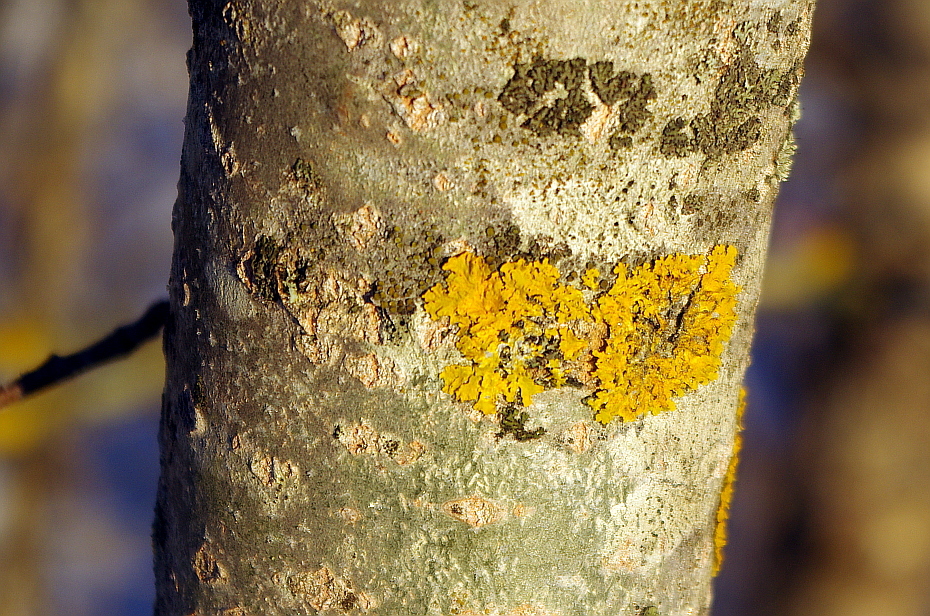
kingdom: Fungi
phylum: Ascomycota
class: Lecanoromycetes
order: Teloschistales
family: Teloschistaceae
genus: Xanthoria
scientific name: Xanthoria parietina
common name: Common orange lichen
